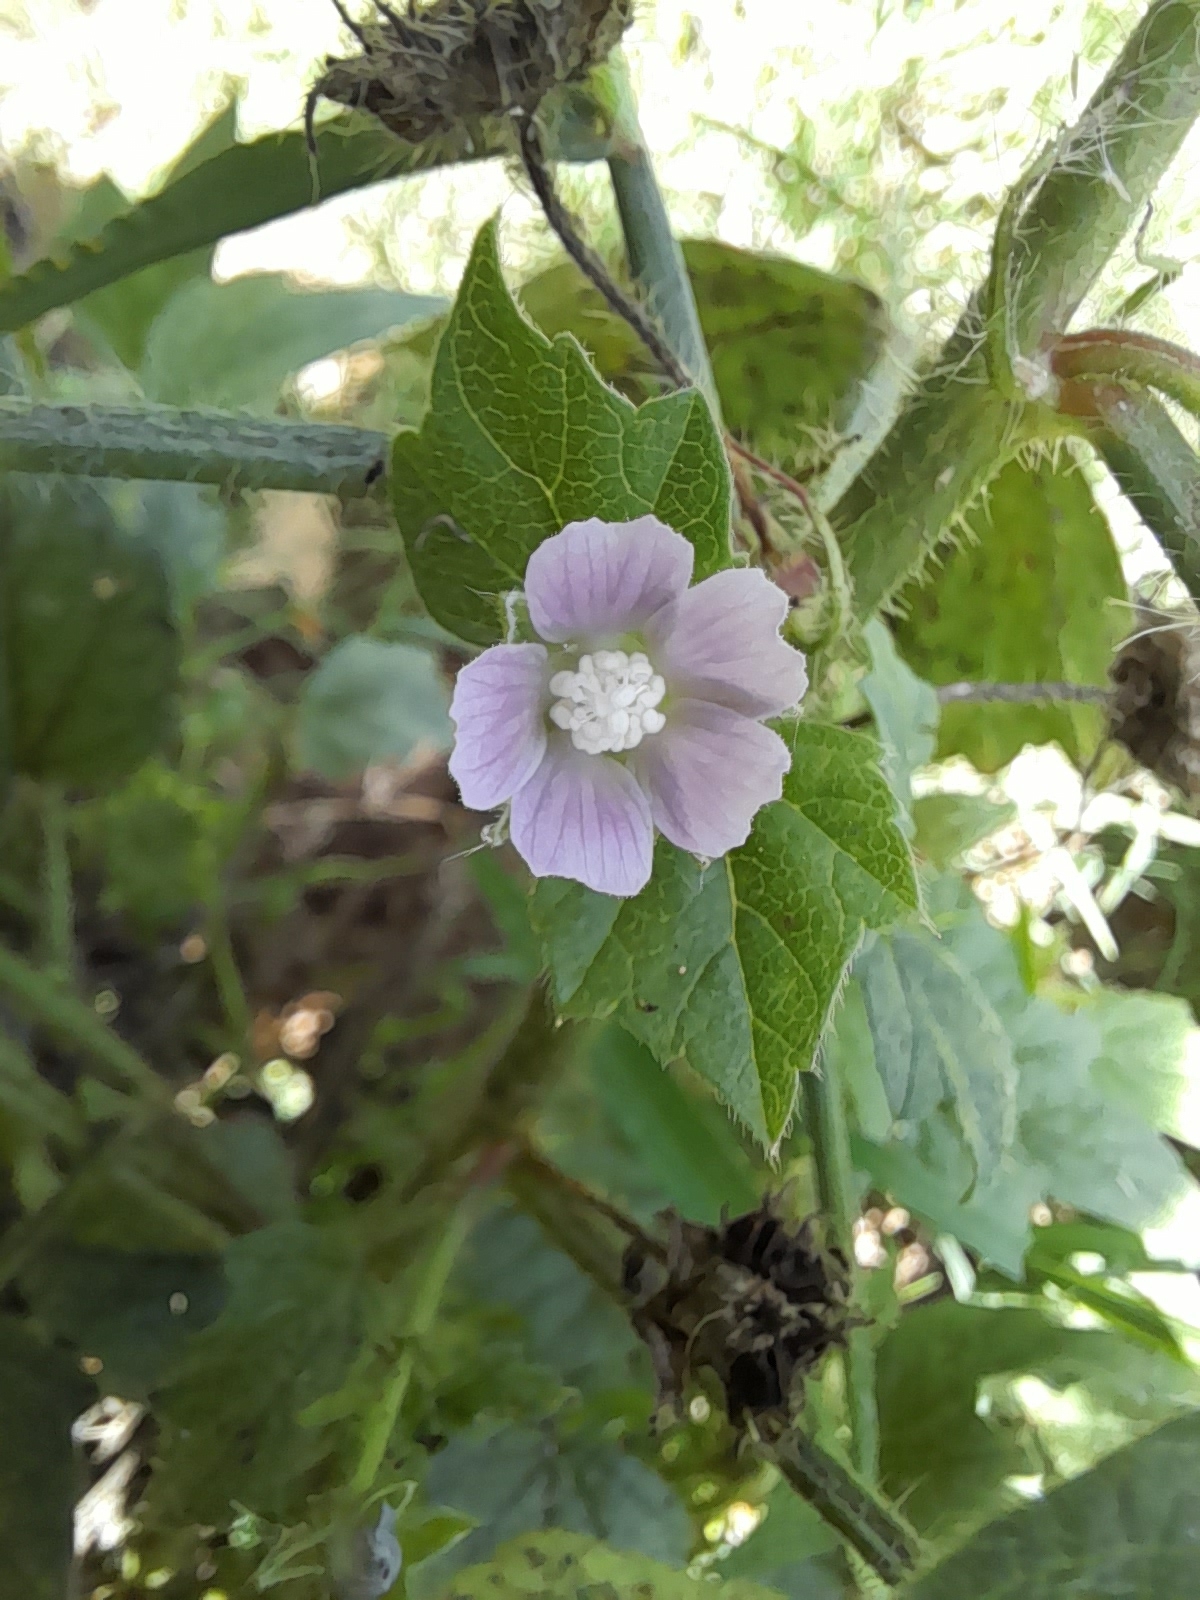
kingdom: Plantae
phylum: Tracheophyta
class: Magnoliopsida
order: Malvales
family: Malvaceae
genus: Anoda
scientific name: Anoda cristata
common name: Spurred anoda
